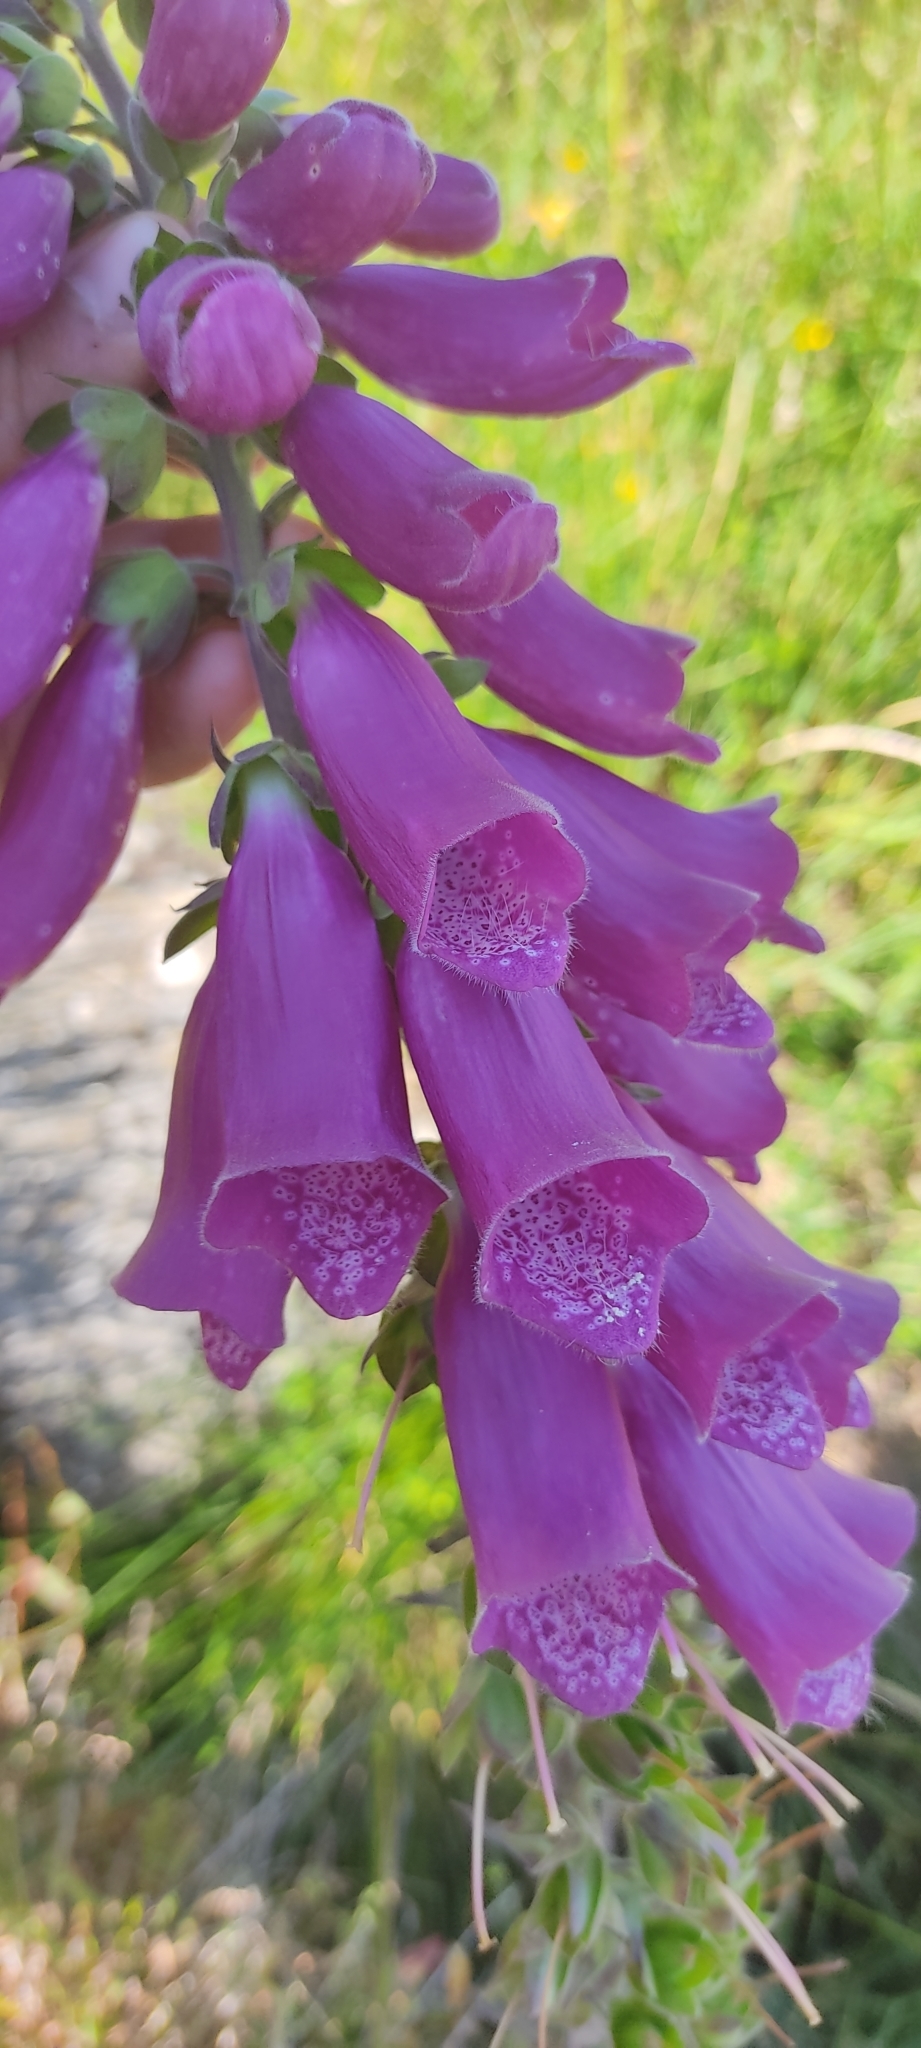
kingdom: Plantae
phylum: Tracheophyta
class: Magnoliopsida
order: Lamiales
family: Plantaginaceae
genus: Digitalis
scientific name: Digitalis purpurea
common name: Foxglove
